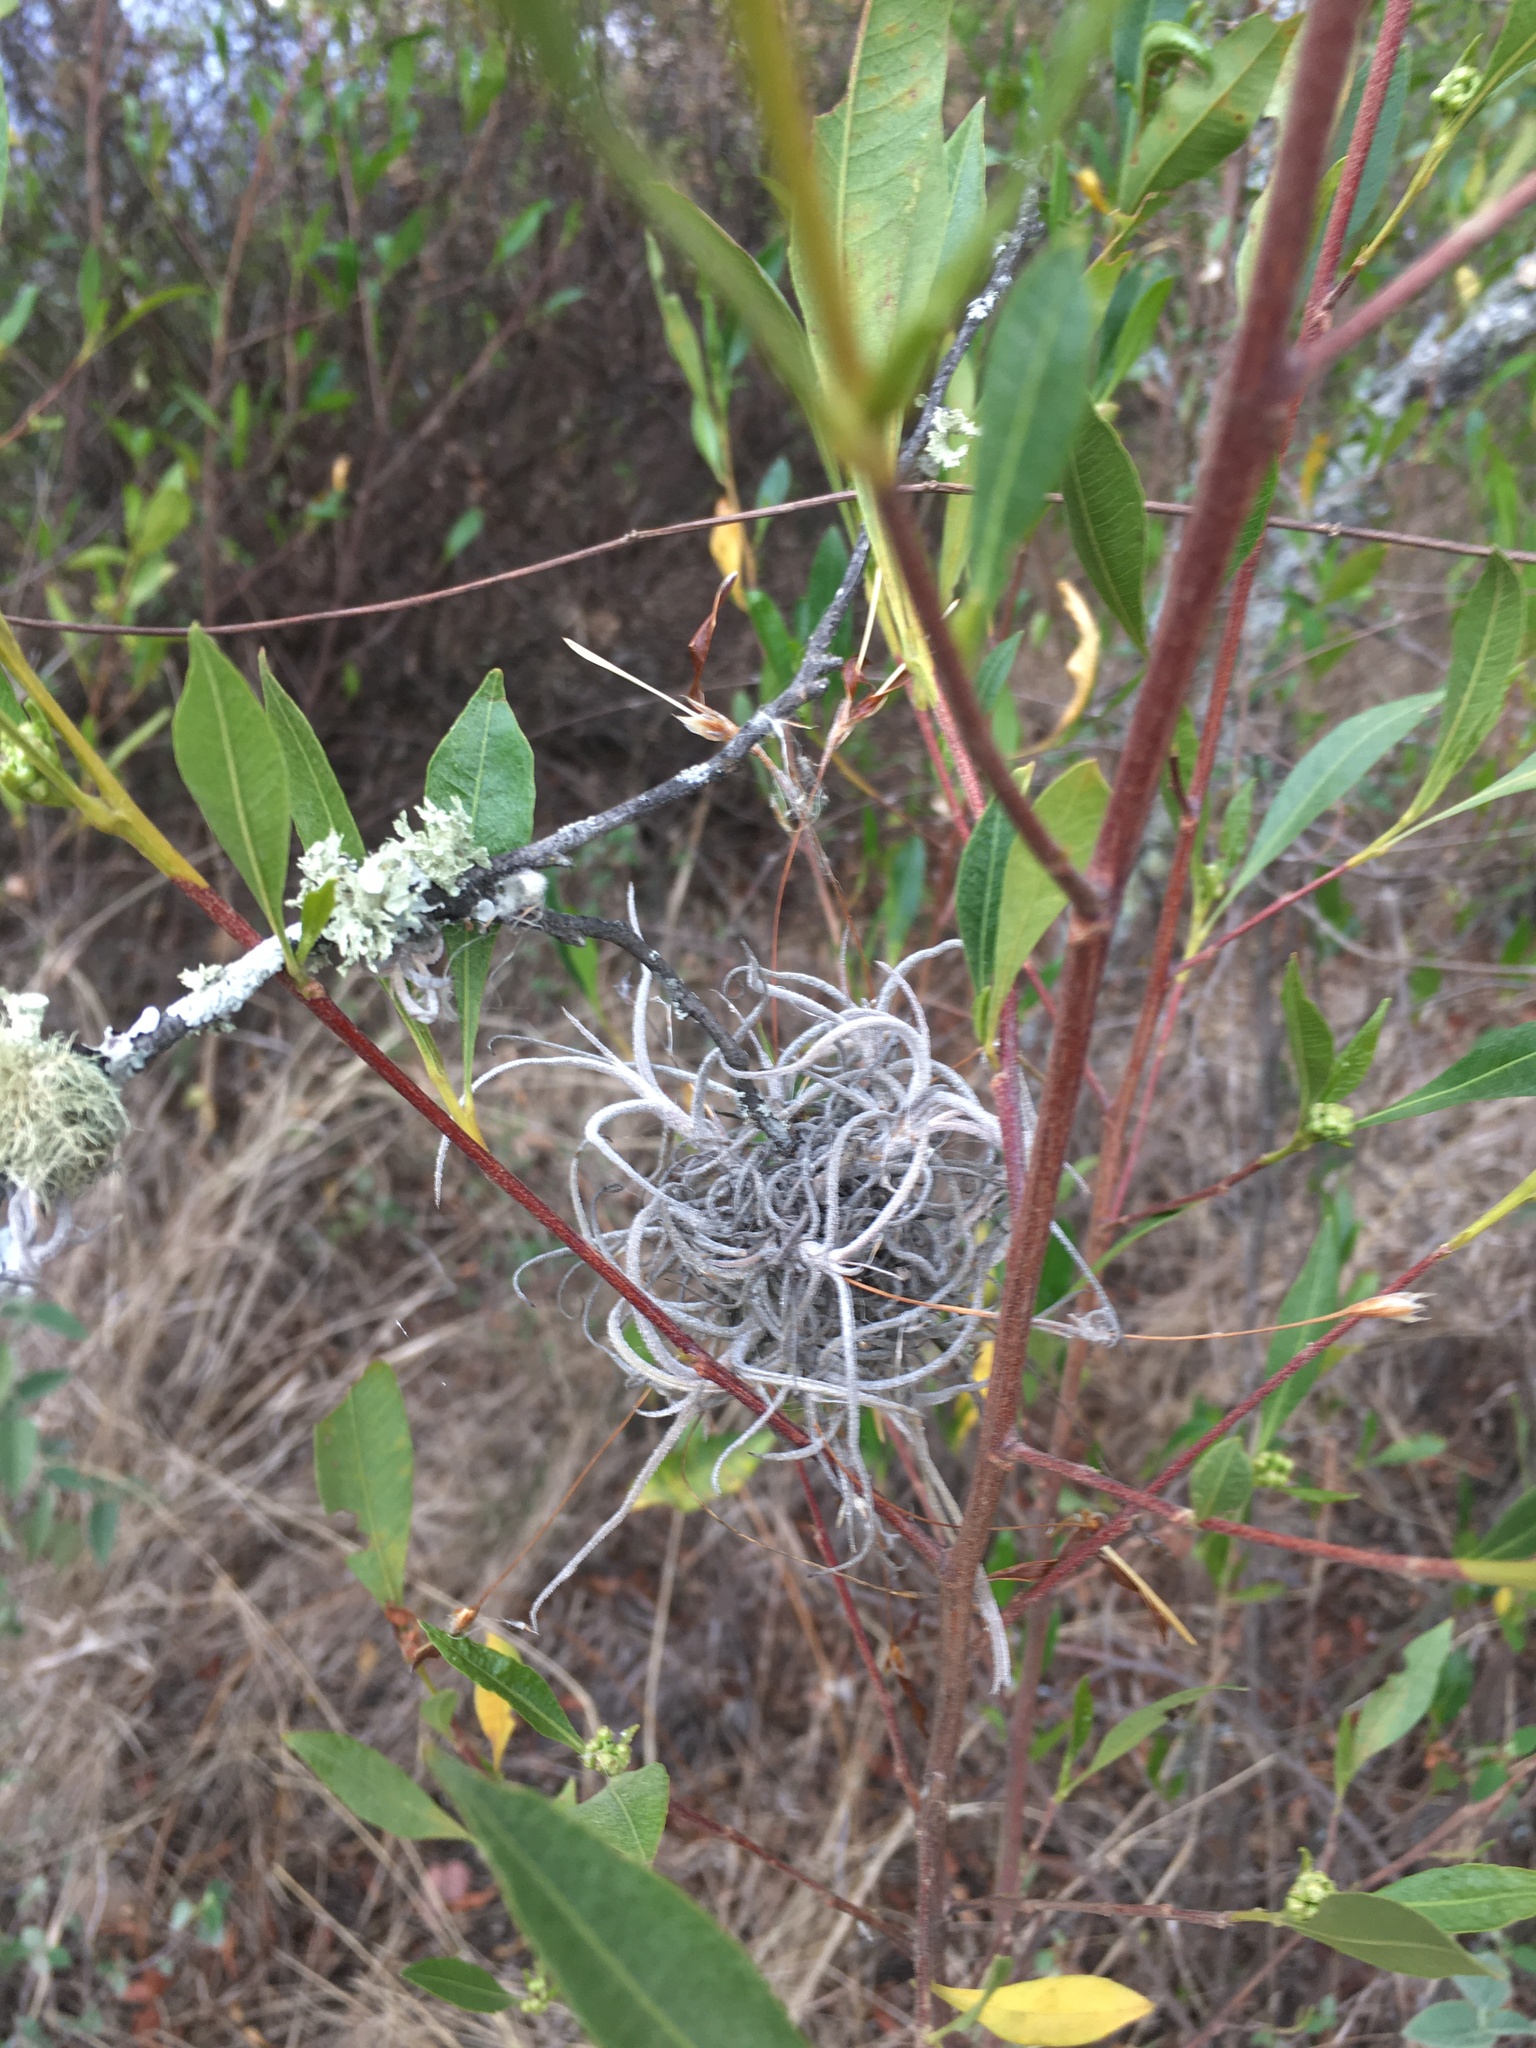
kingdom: Plantae
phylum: Tracheophyta
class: Liliopsida
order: Poales
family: Bromeliaceae
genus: Tillandsia
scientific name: Tillandsia recurvata
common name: Small ballmoss
